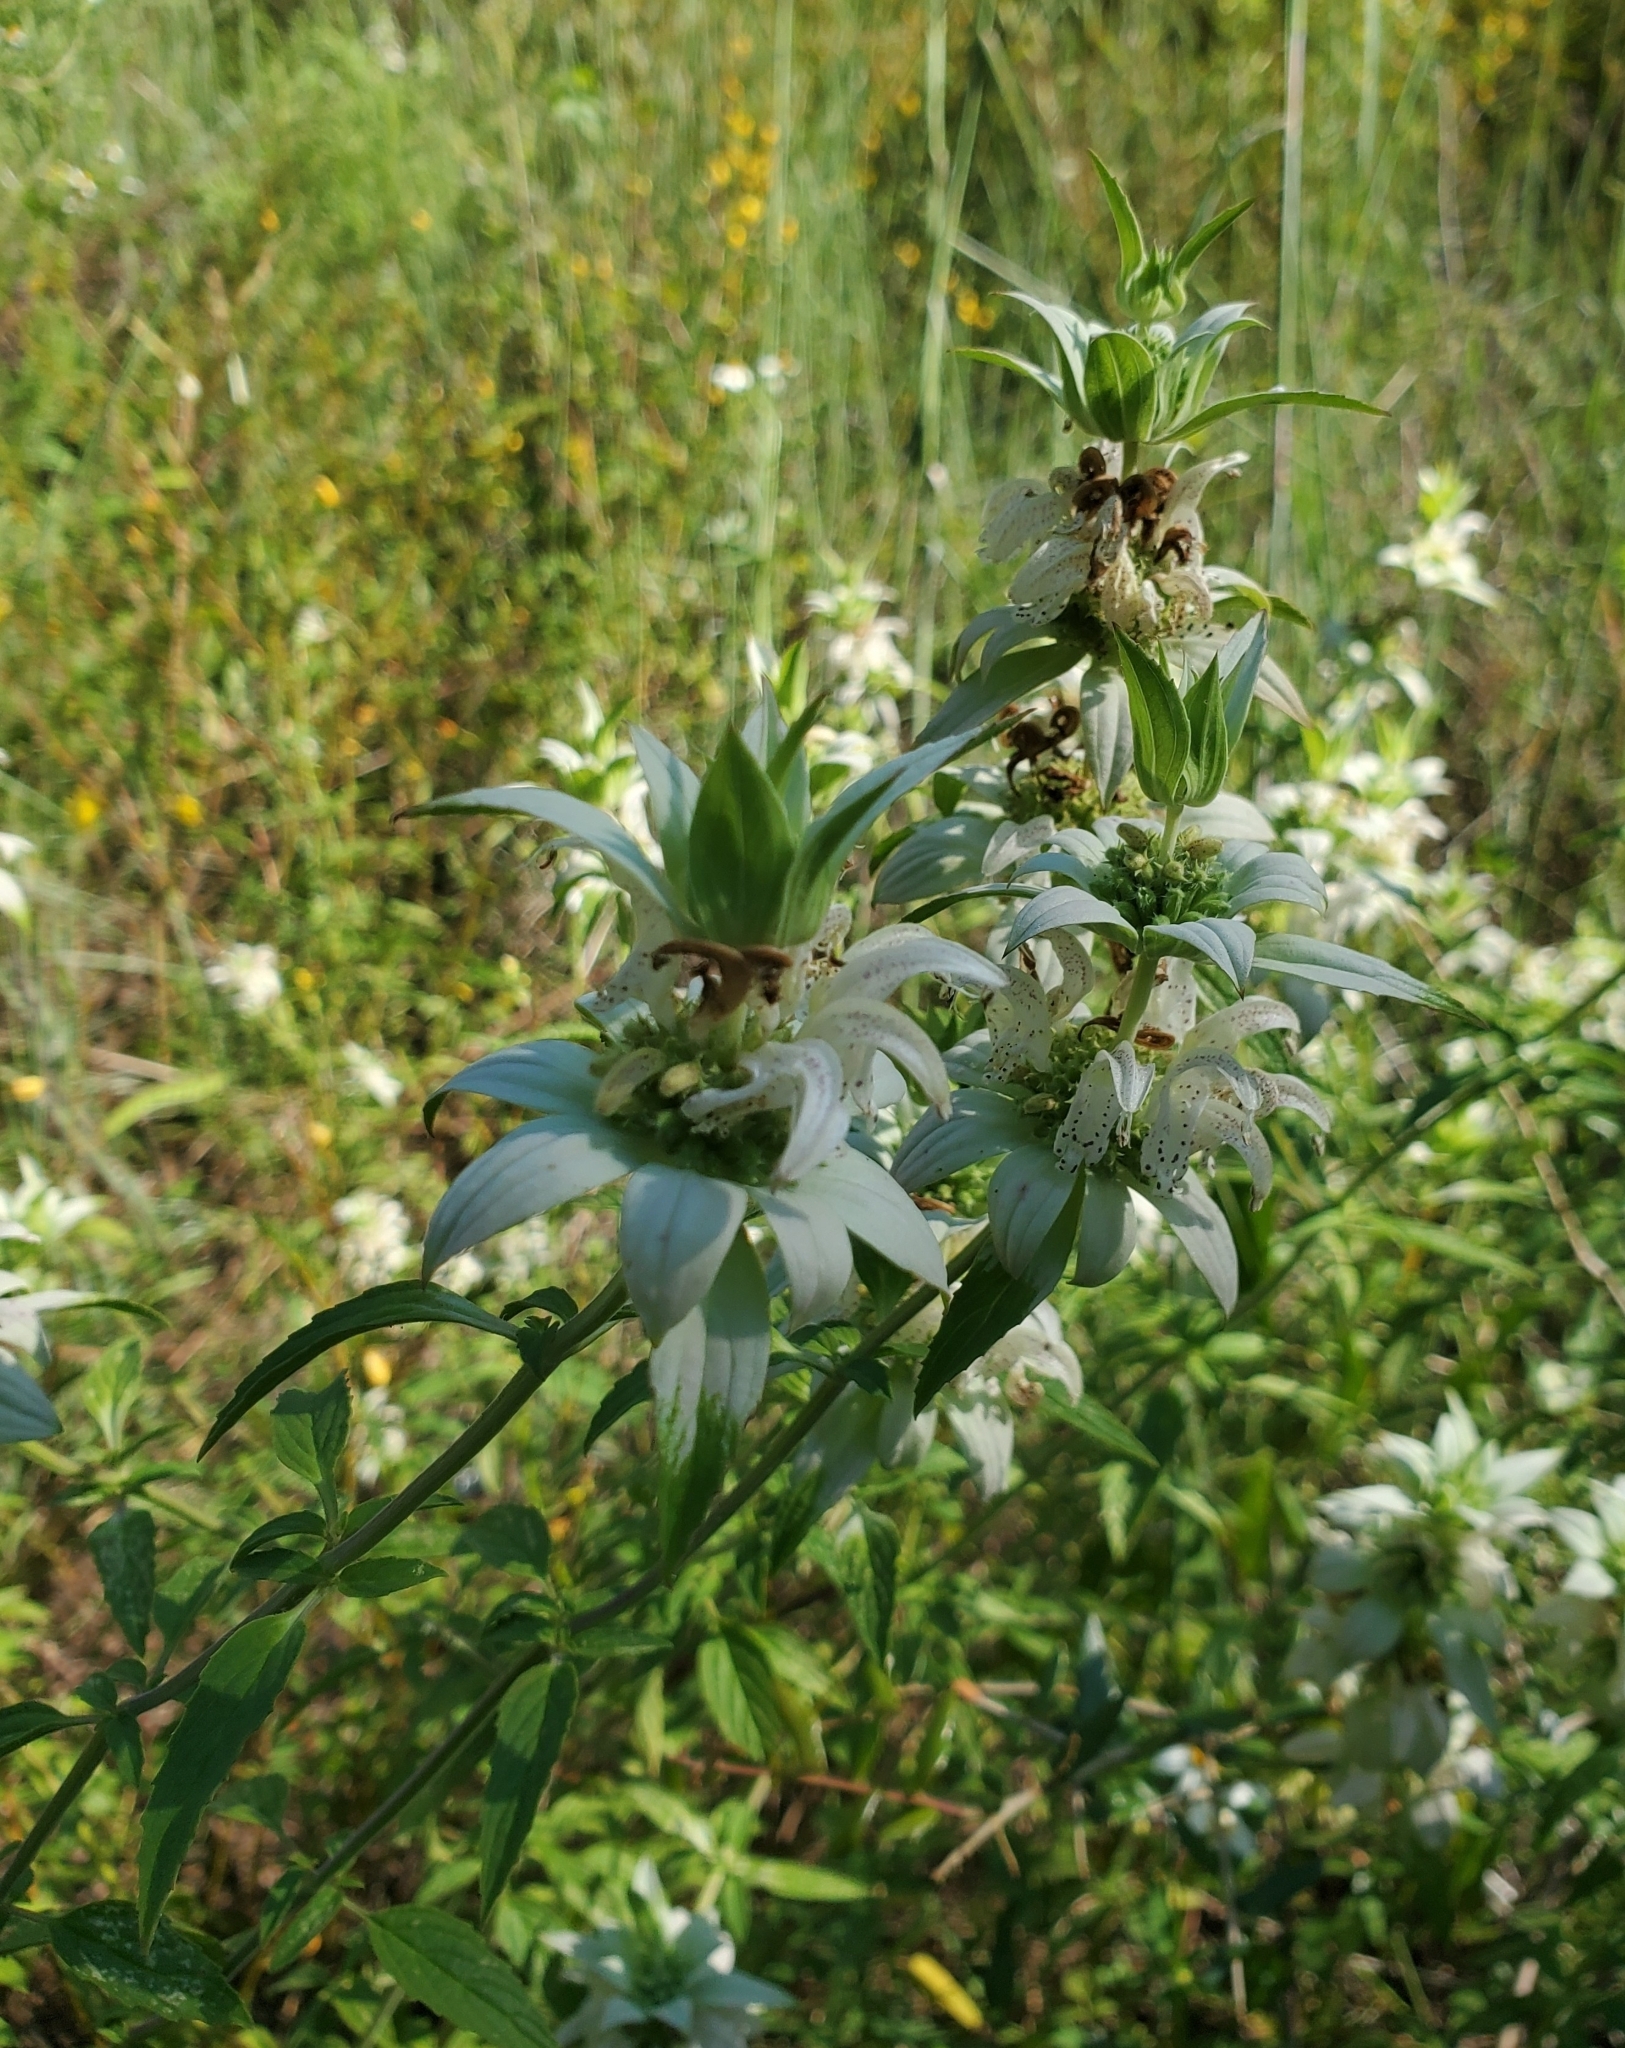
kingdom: Plantae
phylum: Tracheophyta
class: Magnoliopsida
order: Lamiales
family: Lamiaceae
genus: Monarda
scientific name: Monarda punctata
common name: Dotted monarda
